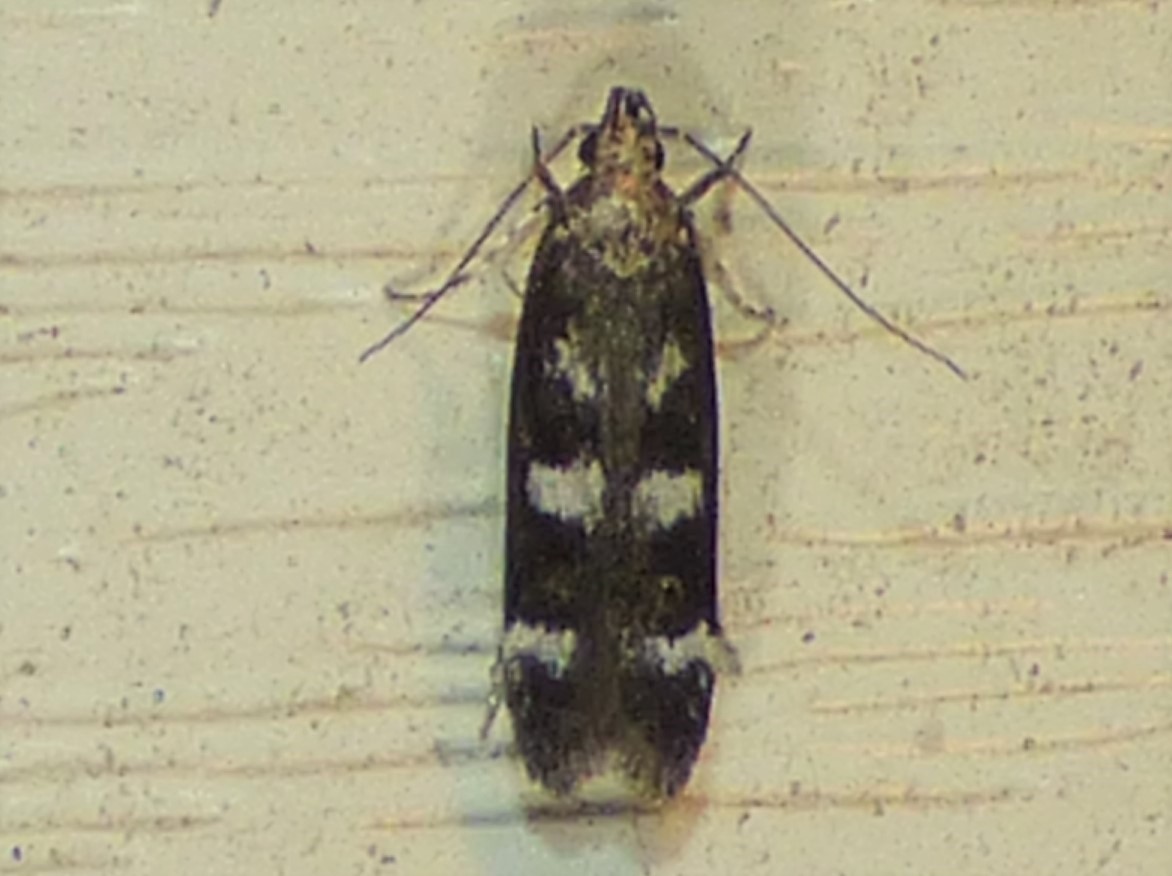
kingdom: Animalia
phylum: Arthropoda
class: Insecta
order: Lepidoptera
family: Gelechiidae
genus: Fascista
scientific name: Fascista bimaculella
